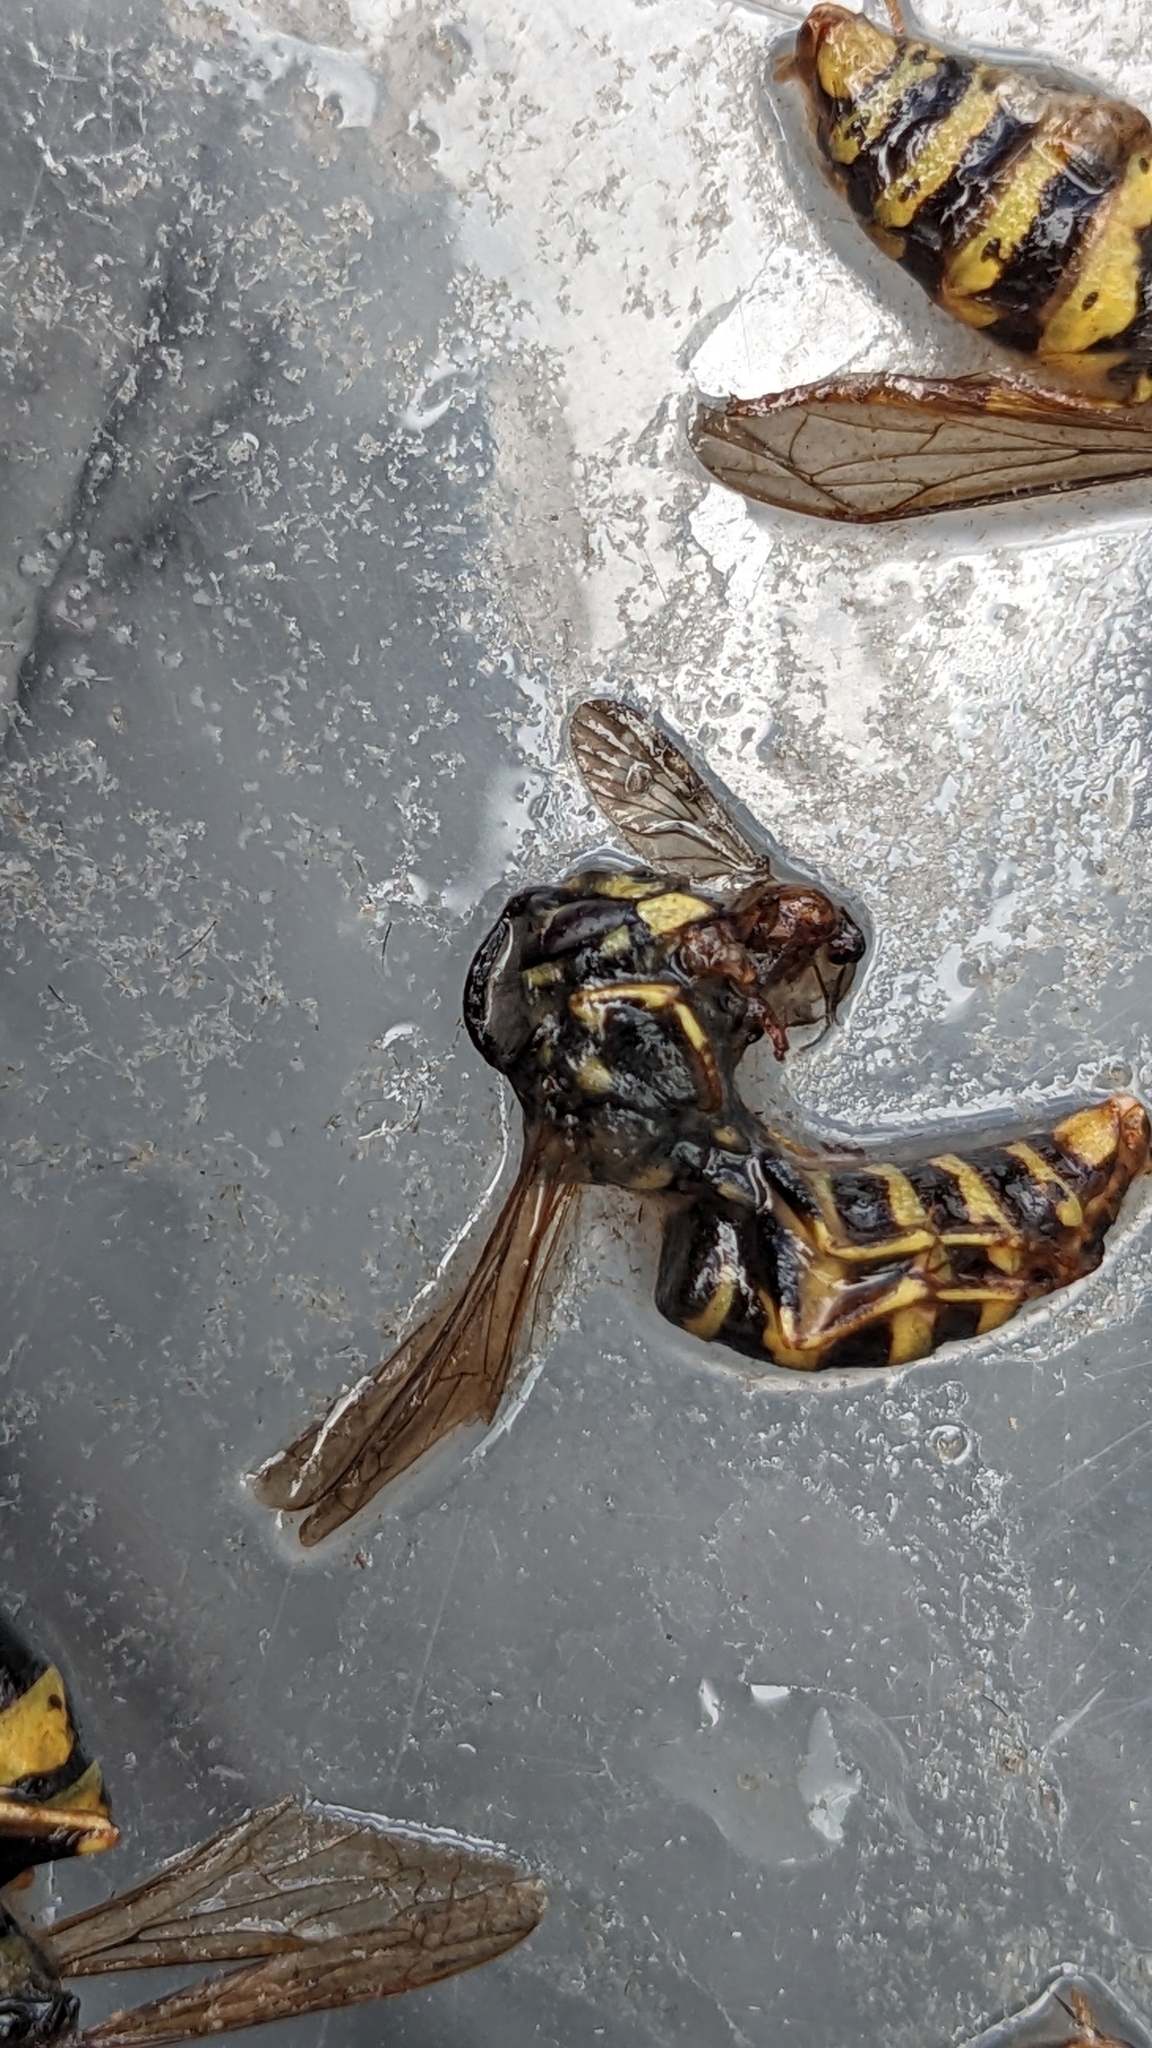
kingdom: Animalia
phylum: Arthropoda
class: Insecta
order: Hymenoptera
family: Vespidae
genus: Vespula
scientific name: Vespula vulgaris
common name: Common wasp
